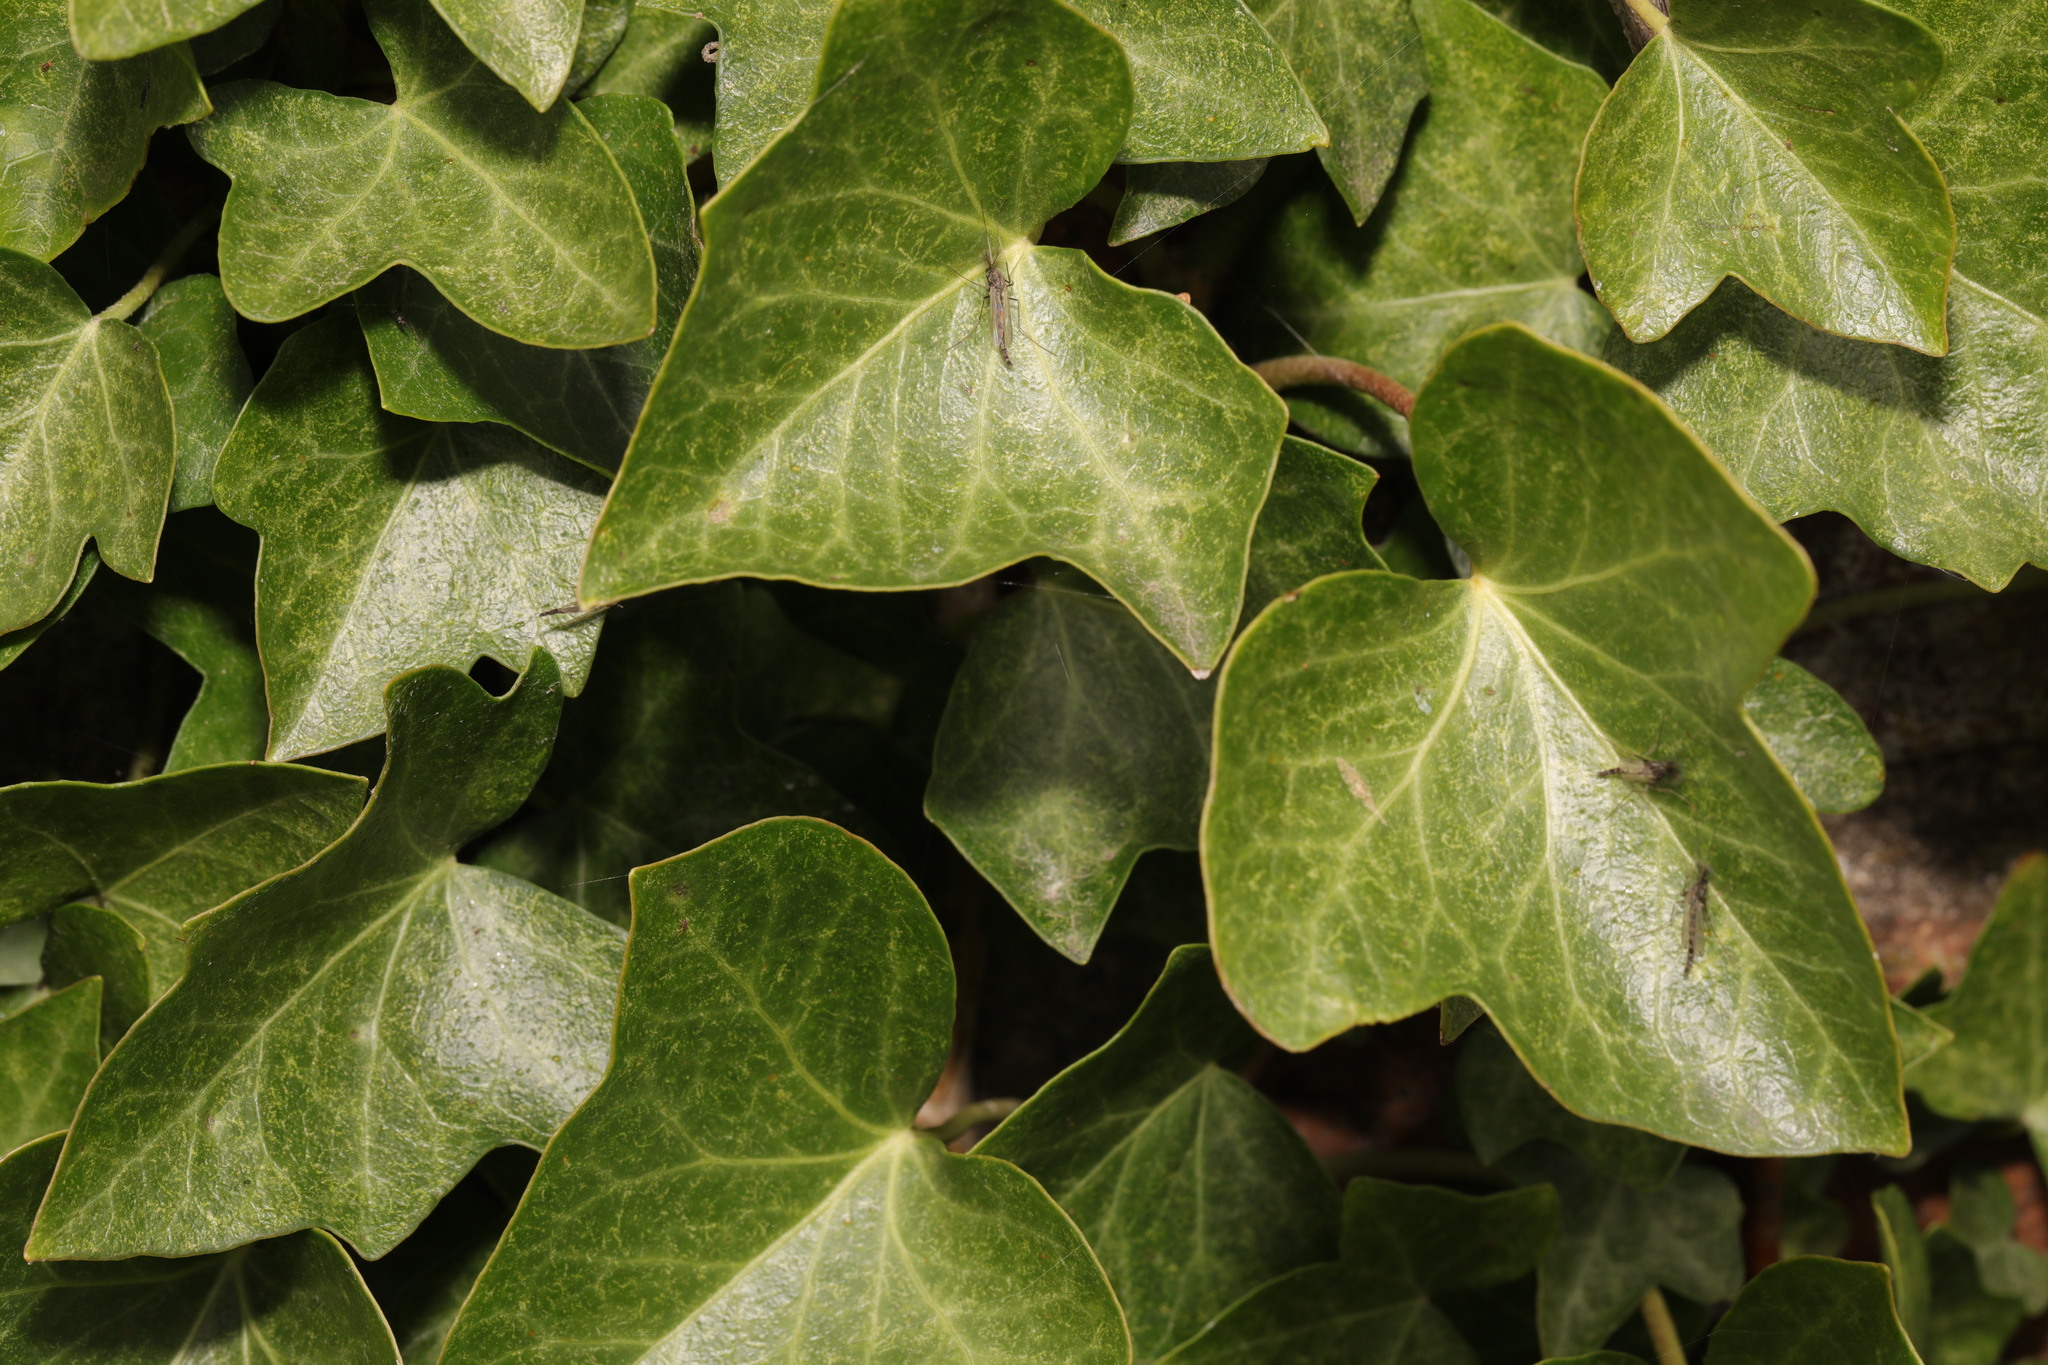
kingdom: Plantae
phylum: Tracheophyta
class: Magnoliopsida
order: Apiales
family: Araliaceae
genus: Hedera
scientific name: Hedera helix
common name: Ivy
